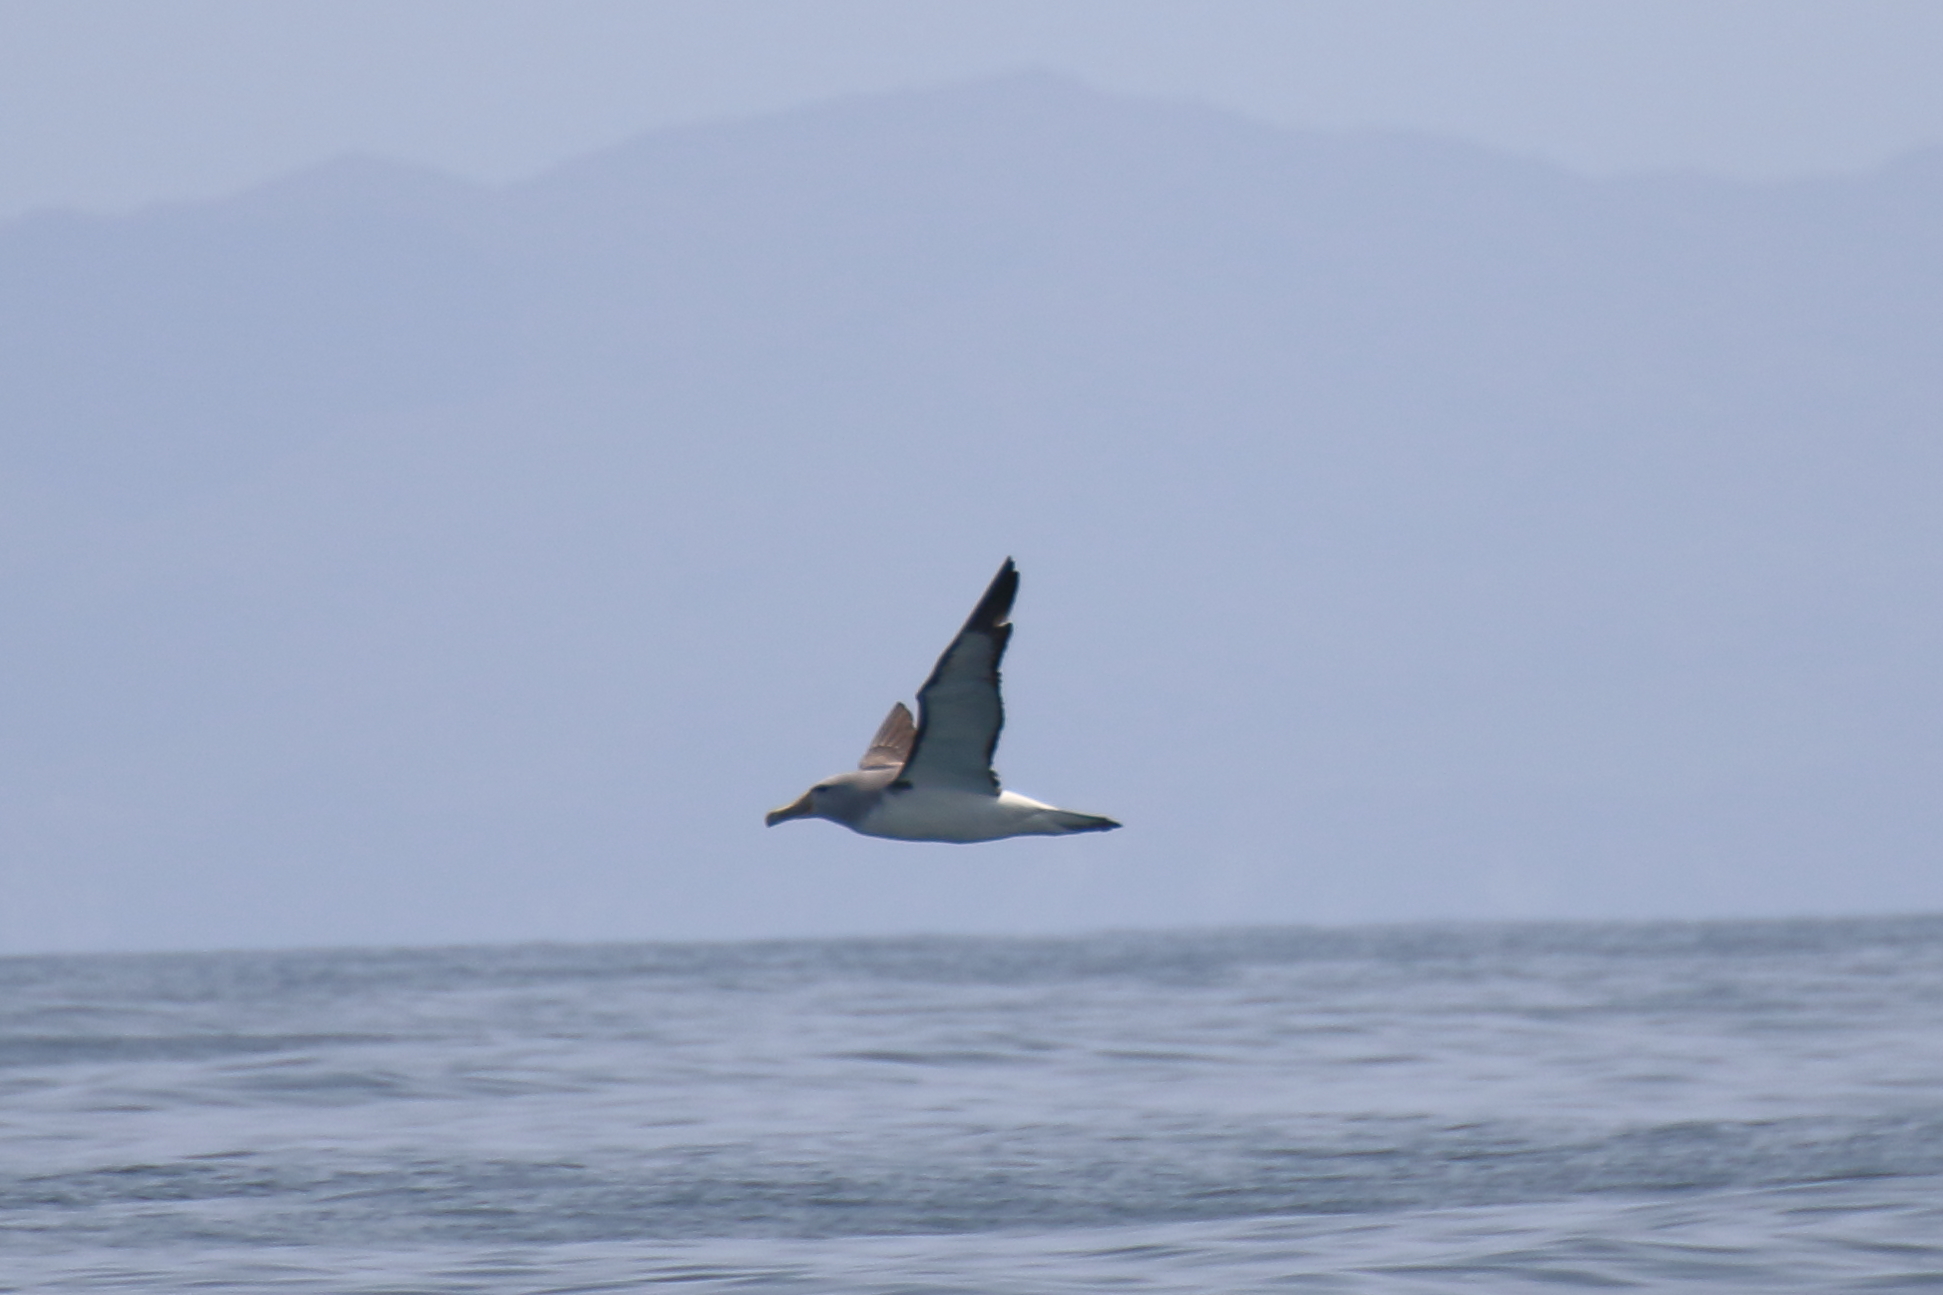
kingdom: Animalia
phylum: Chordata
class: Aves
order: Procellariiformes
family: Diomedeidae
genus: Thalassarche
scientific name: Thalassarche salvini
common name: Salvin's albatross
